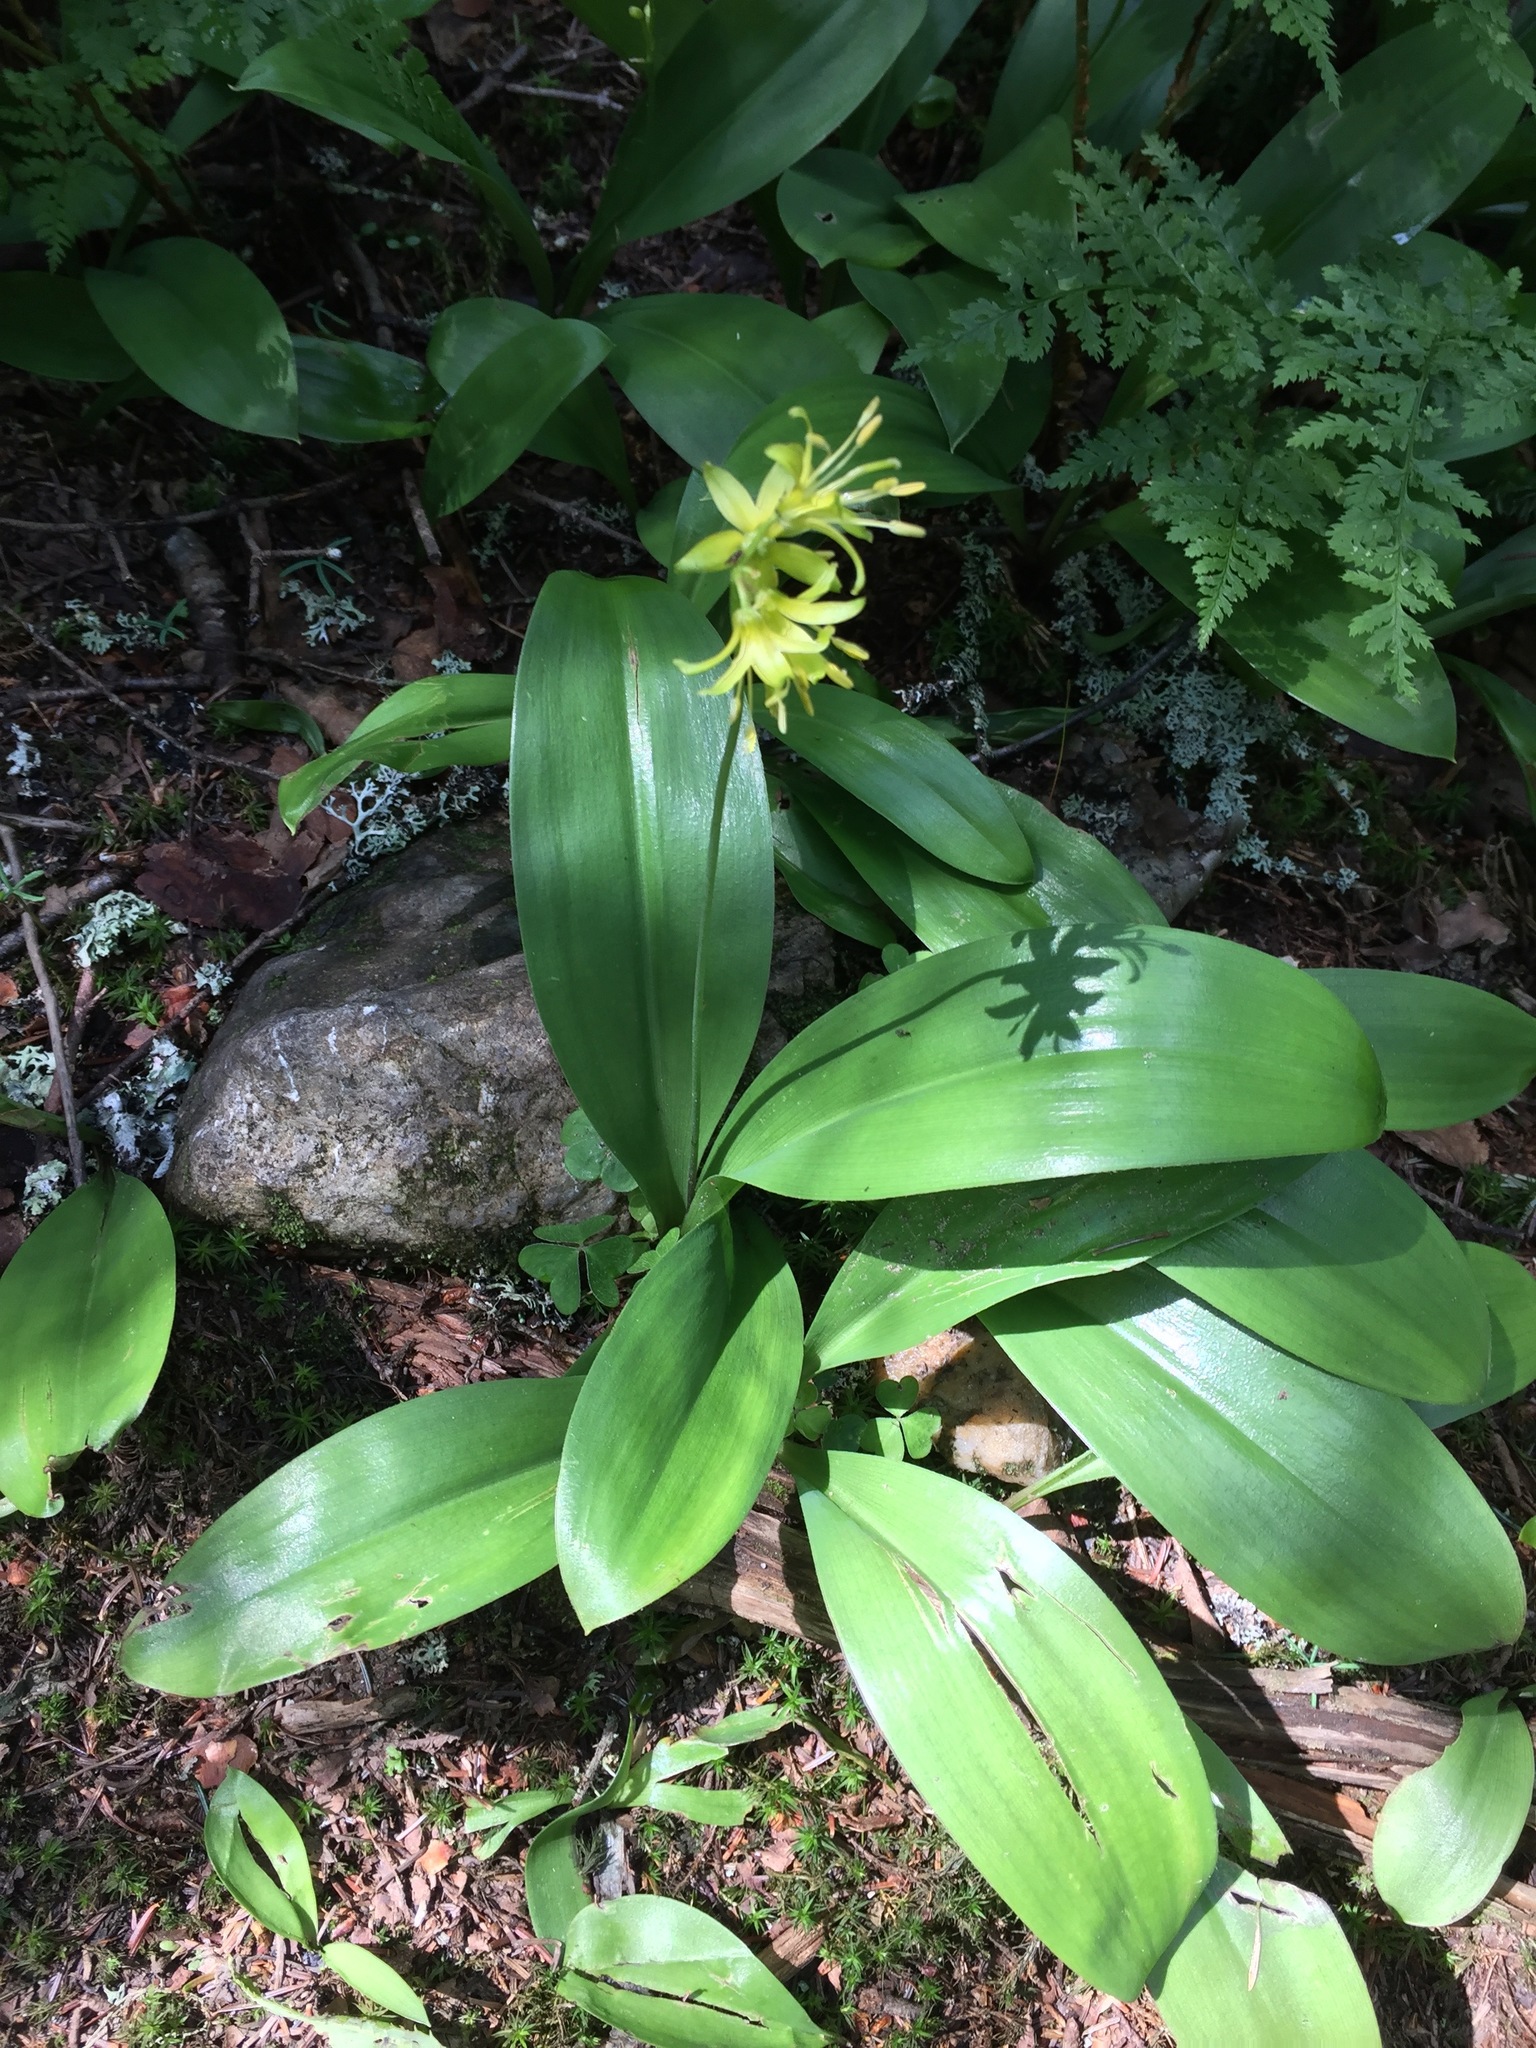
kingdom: Plantae
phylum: Tracheophyta
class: Liliopsida
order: Liliales
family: Liliaceae
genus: Clintonia
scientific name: Clintonia borealis
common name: Yellow clintonia
